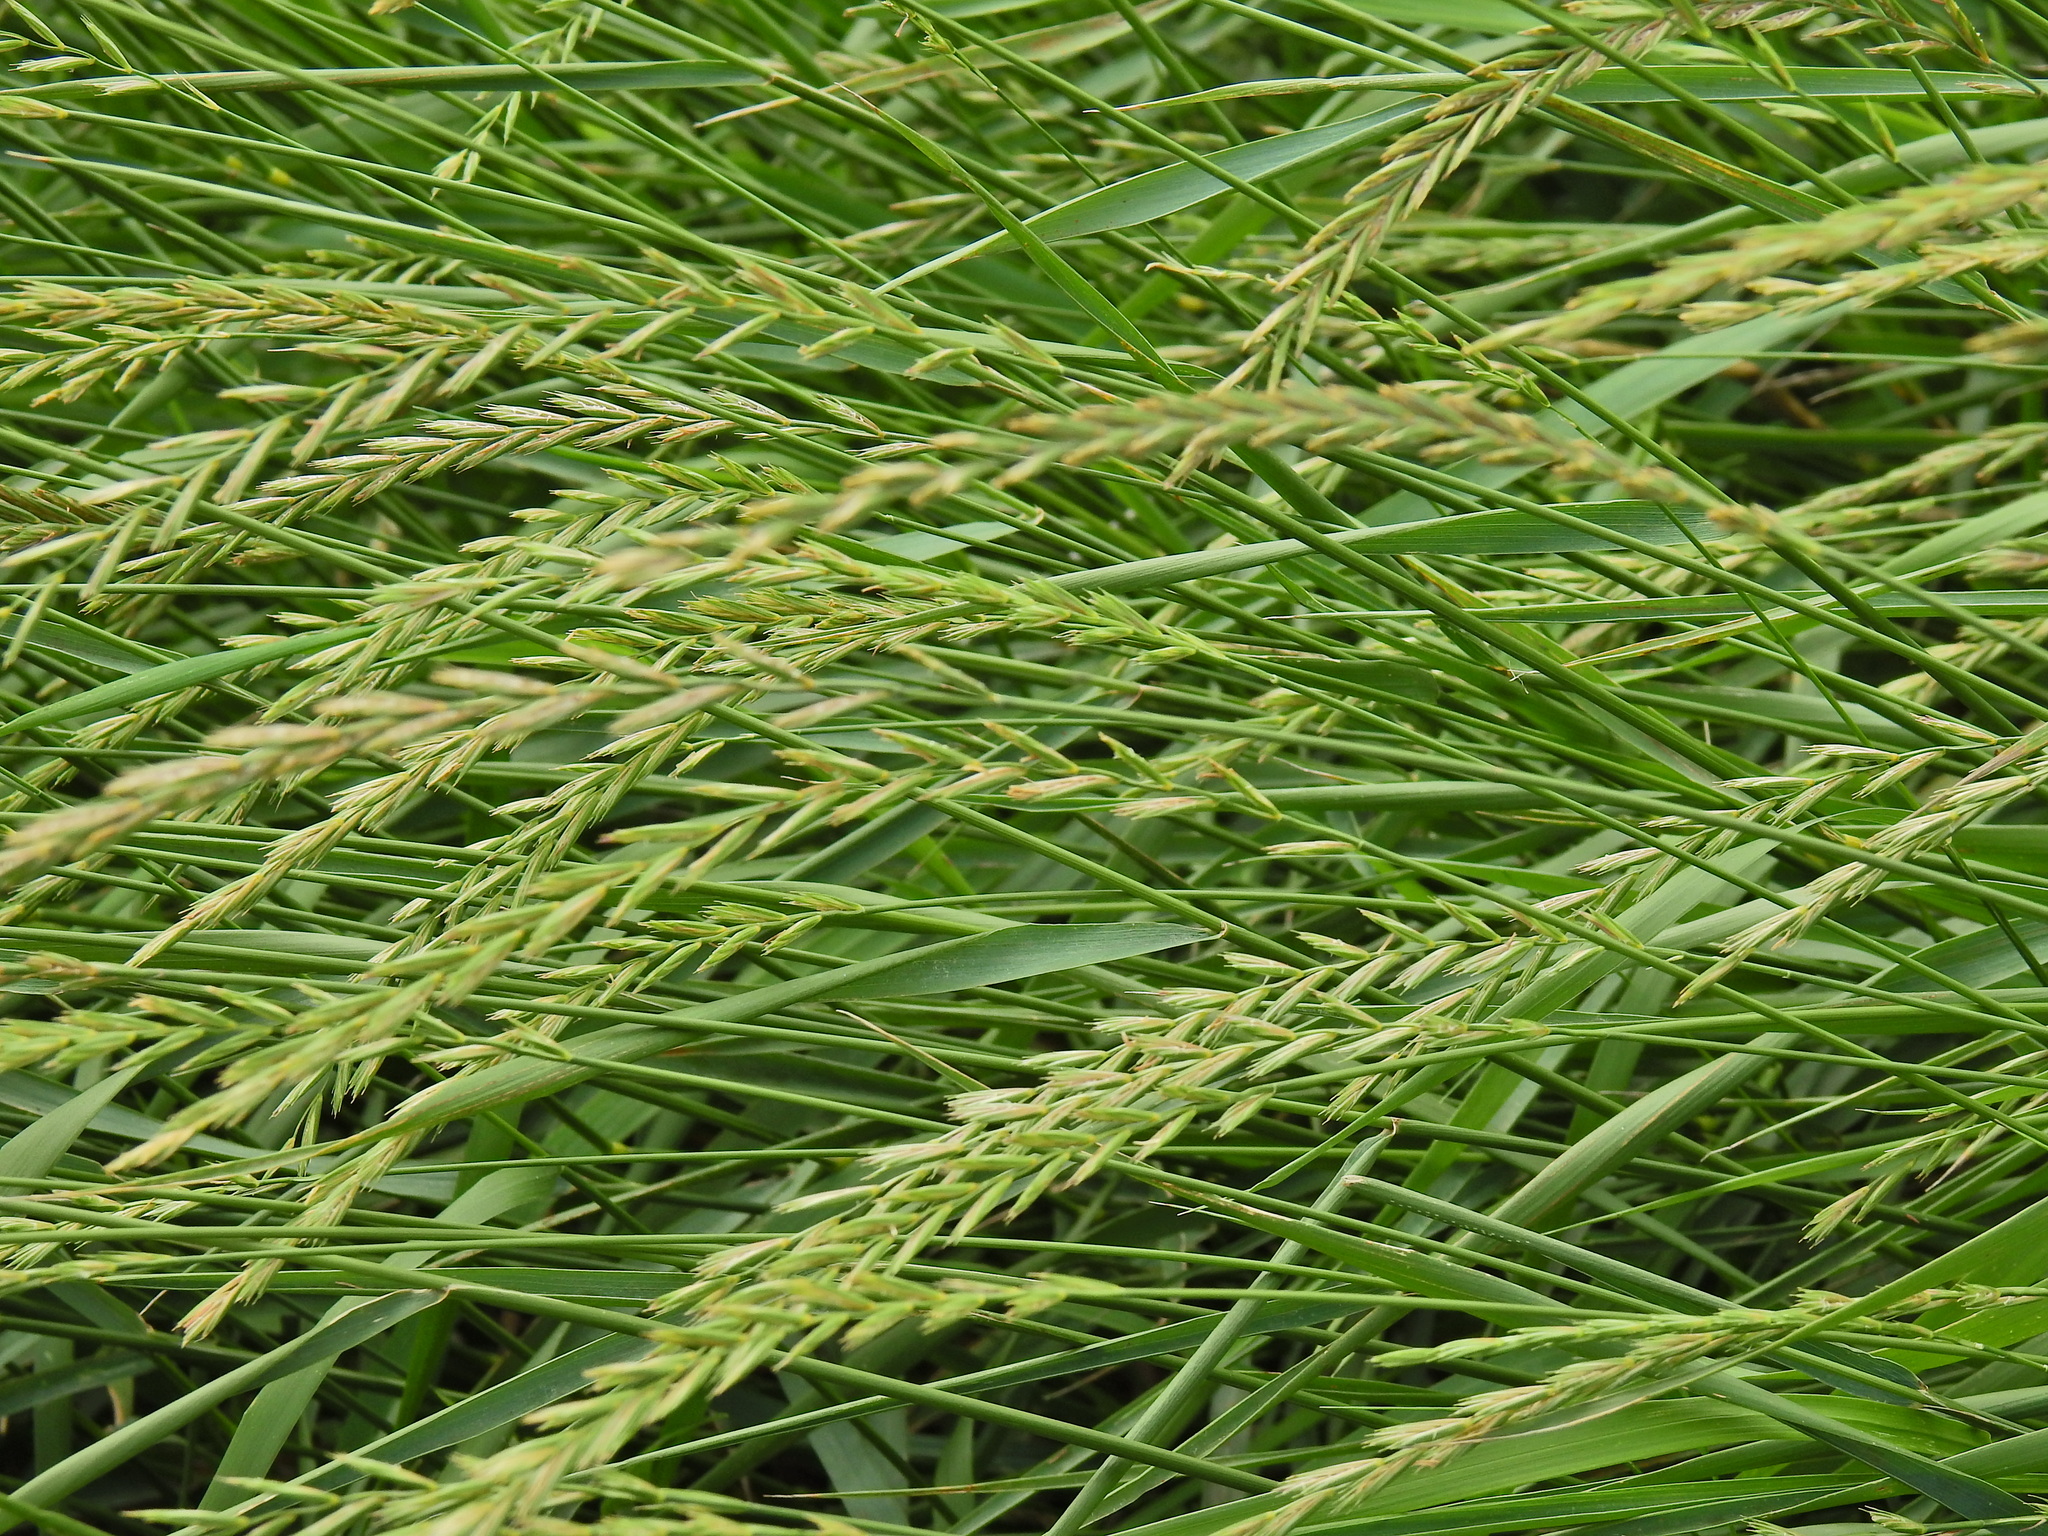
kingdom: Plantae
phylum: Tracheophyta
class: Liliopsida
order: Poales
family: Poaceae
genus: Elymus
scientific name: Elymus repens
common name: Quackgrass
